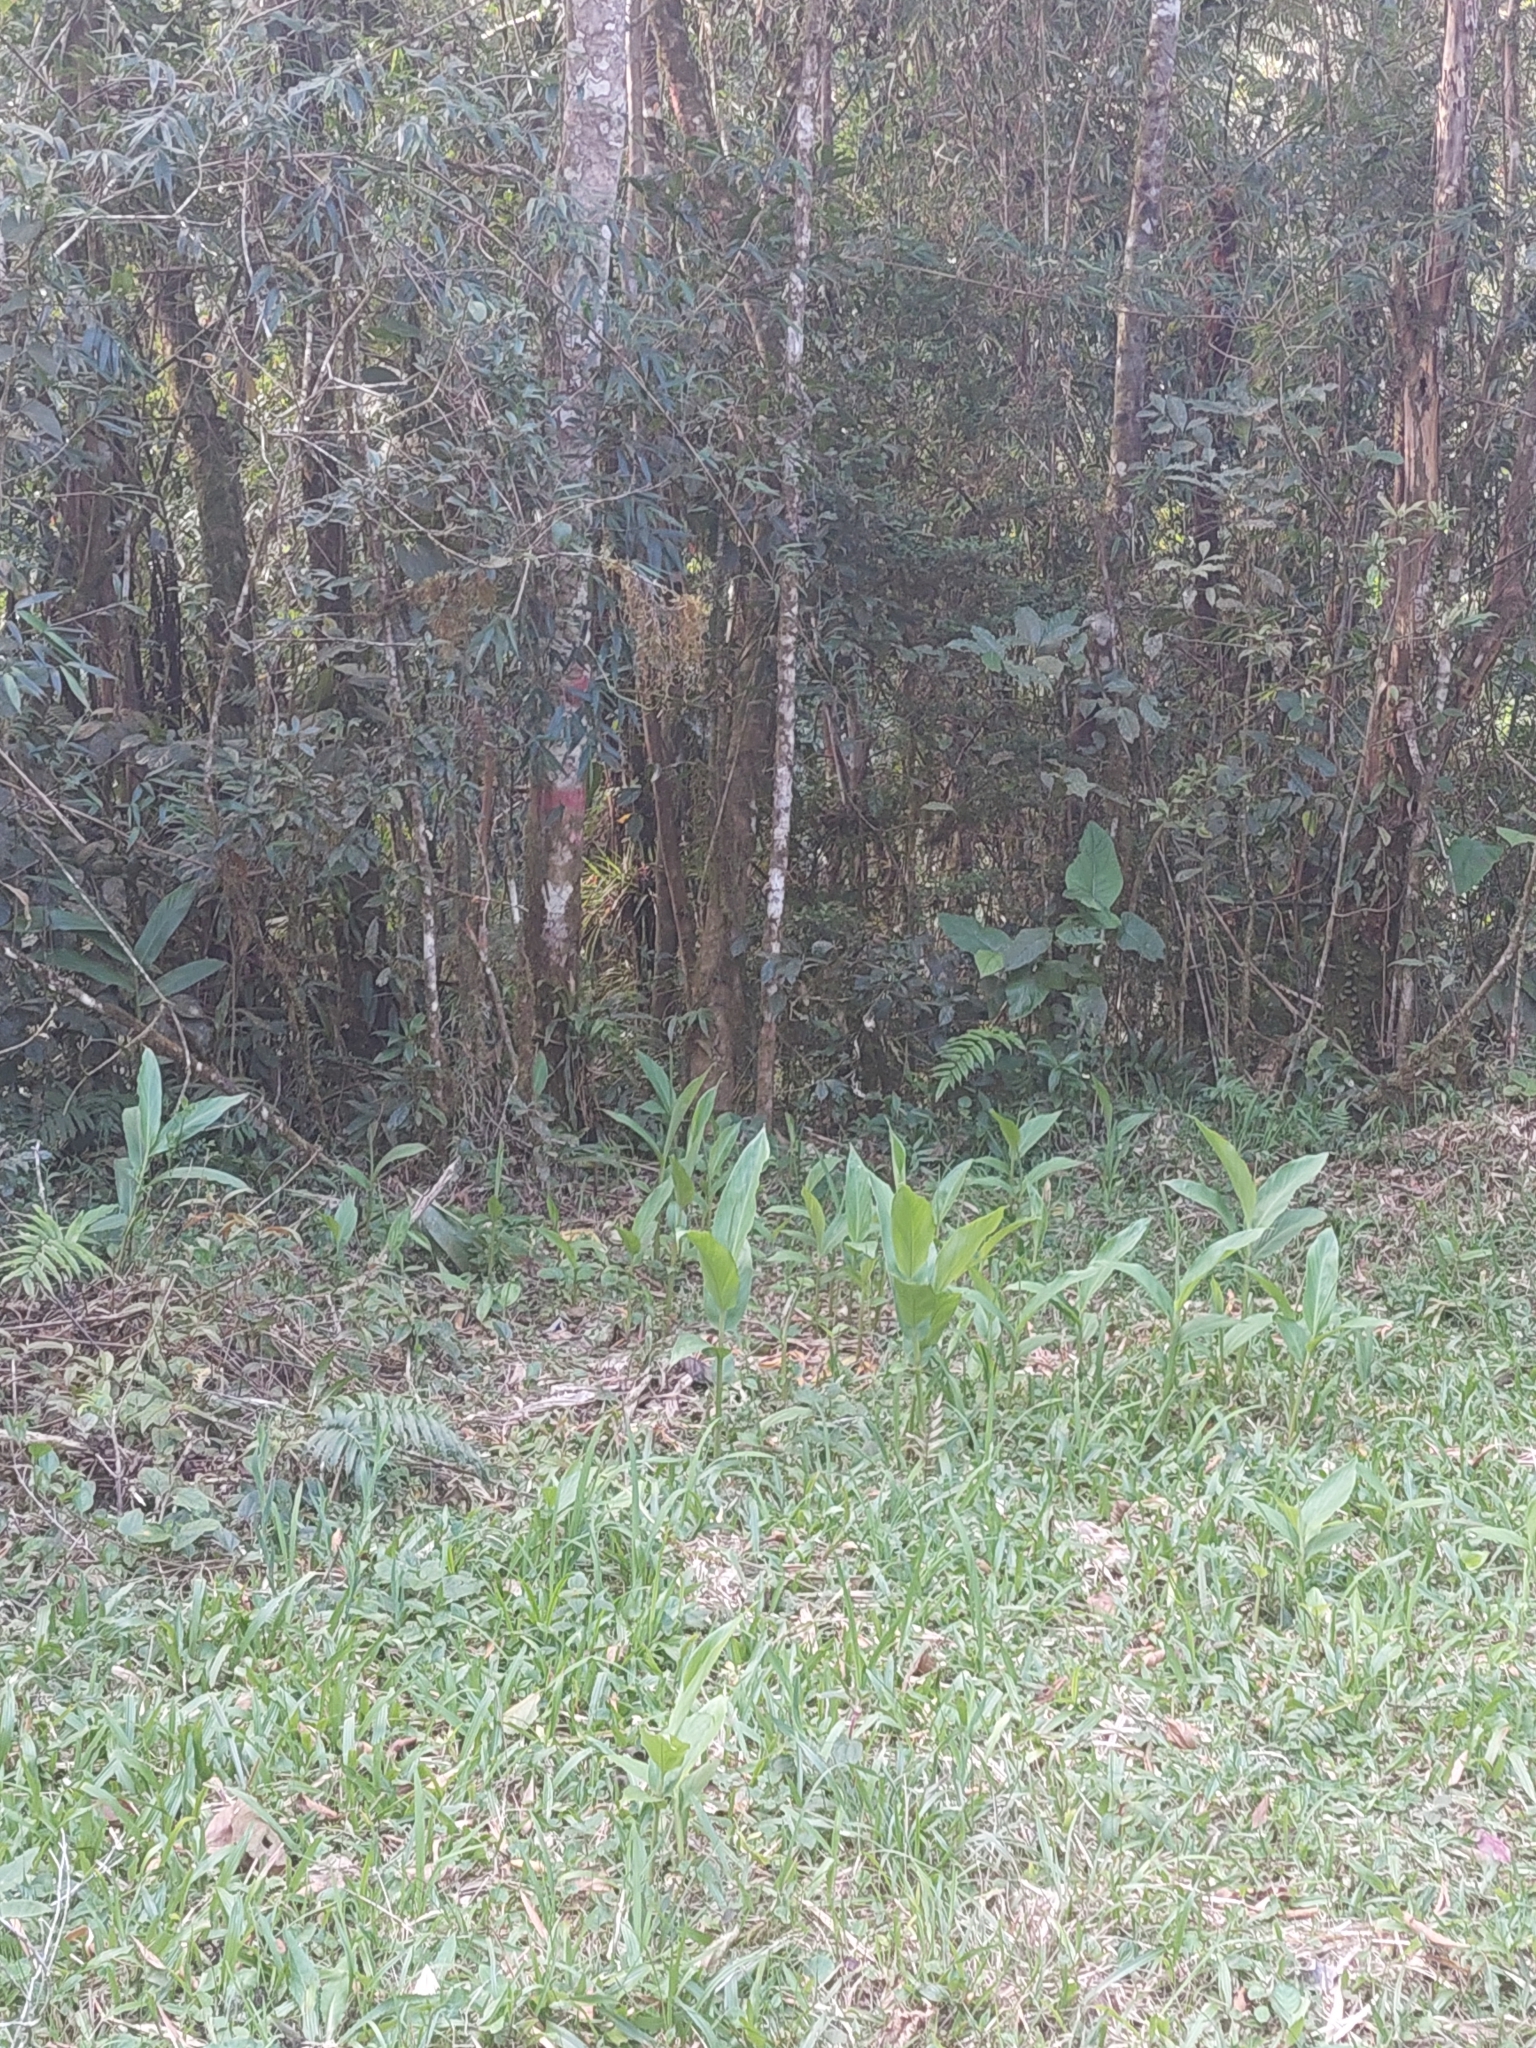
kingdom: Plantae
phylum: Tracheophyta
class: Liliopsida
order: Zingiberales
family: Zingiberaceae
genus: Hedychium
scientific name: Hedychium coronarium
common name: White garland-lily
